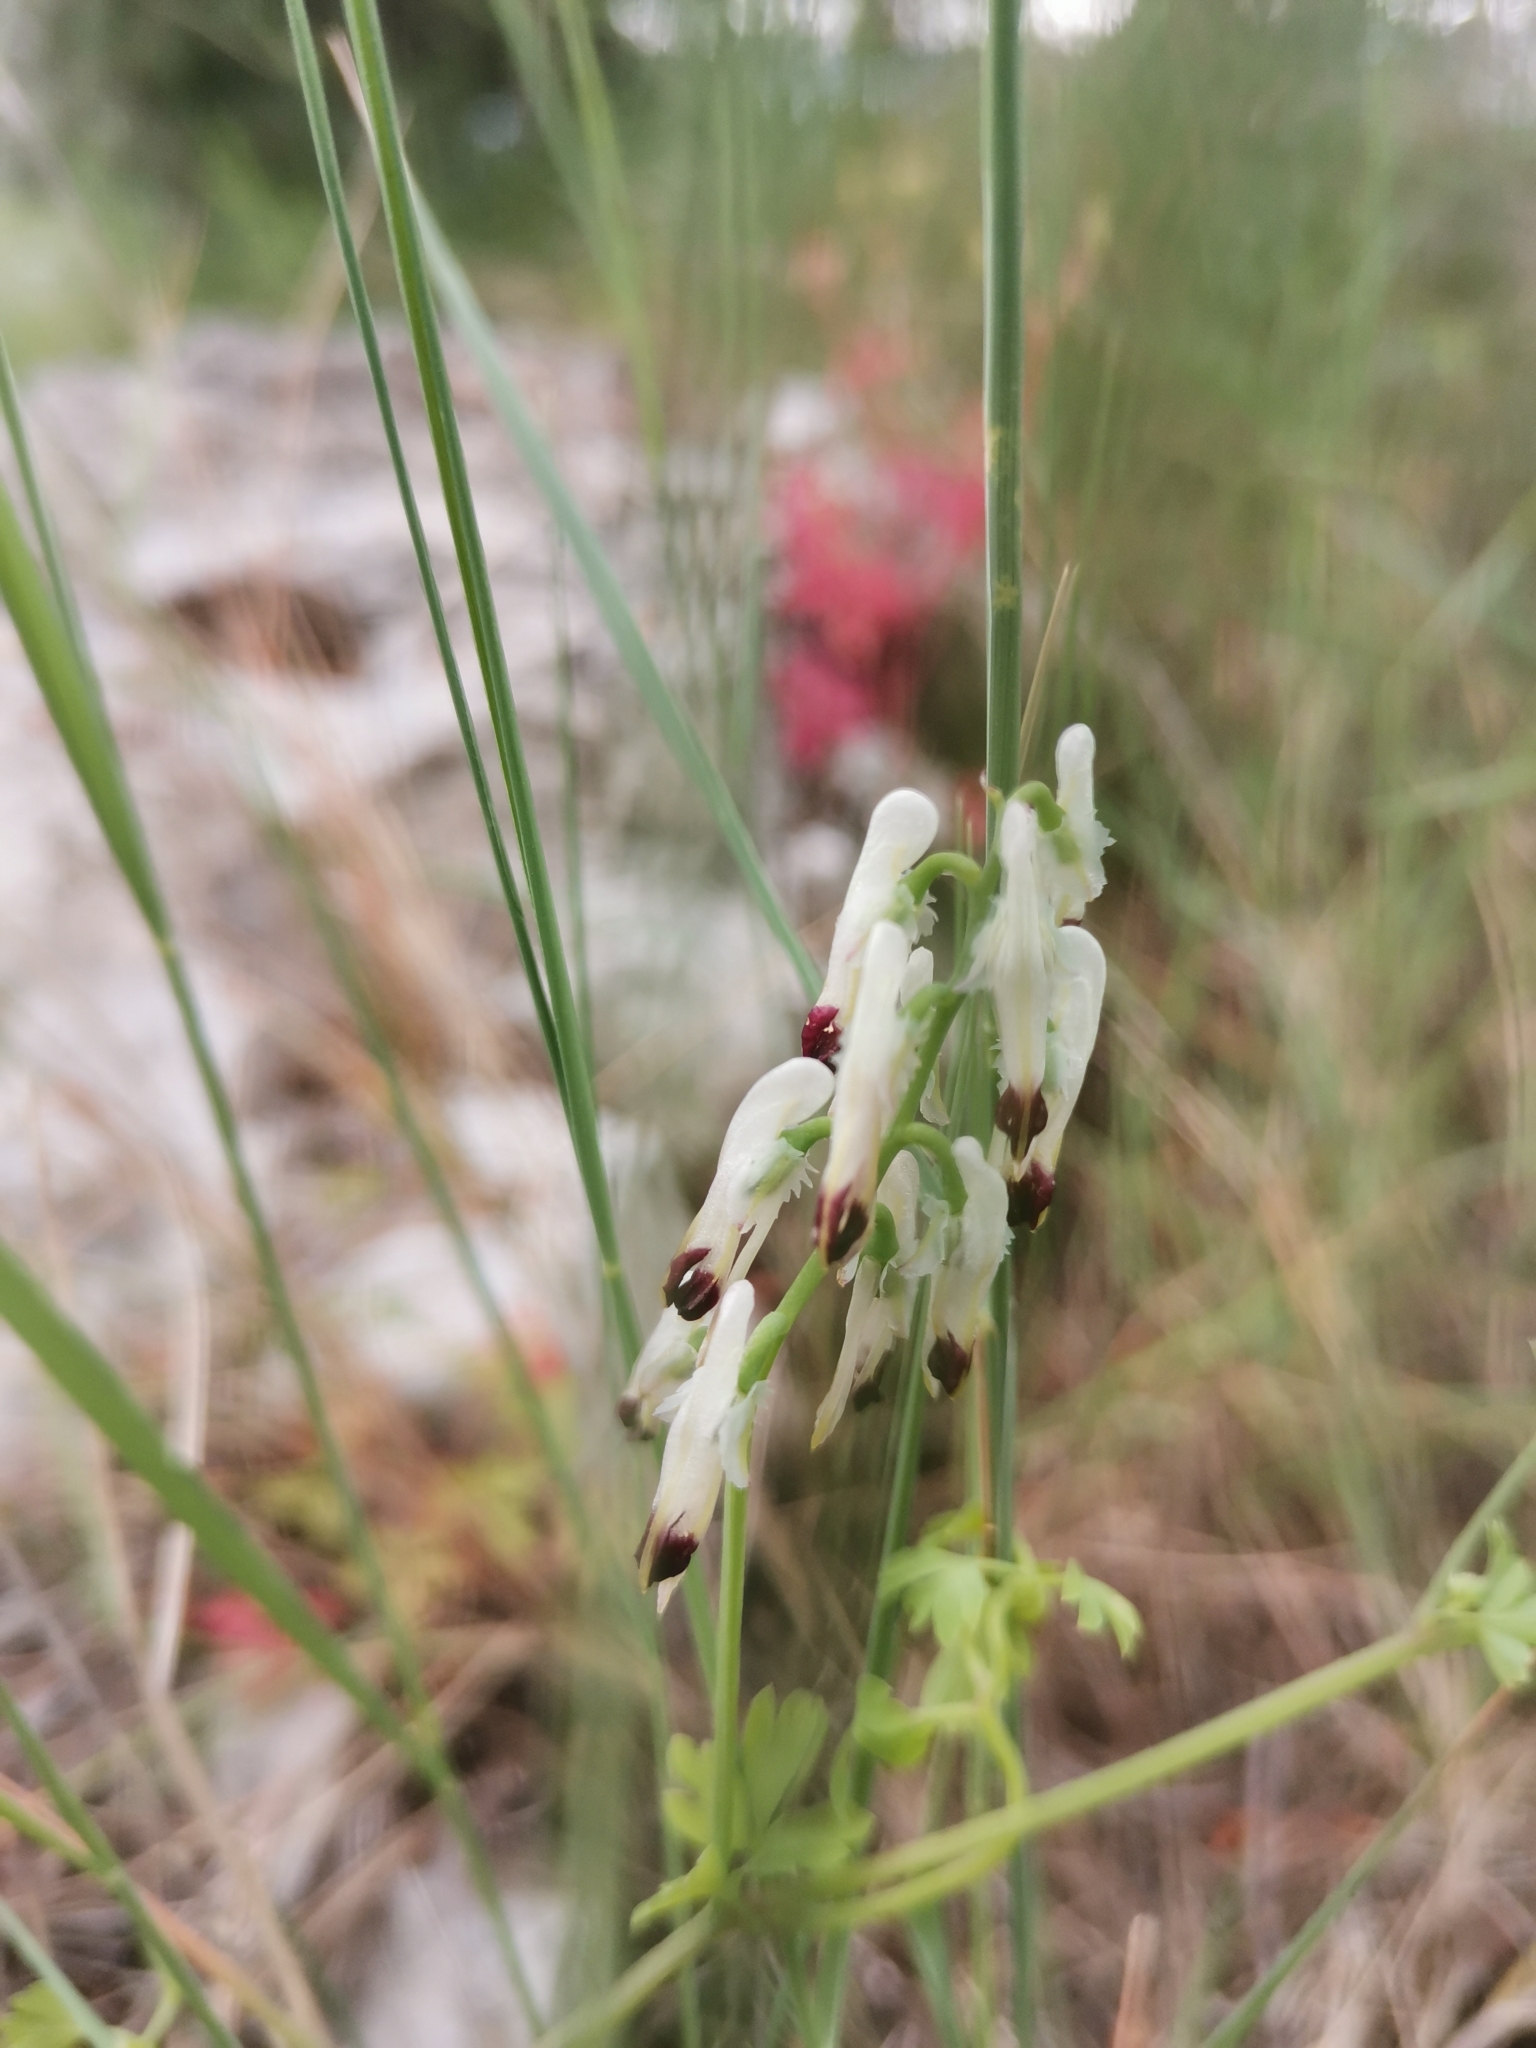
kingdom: Plantae
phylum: Tracheophyta
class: Magnoliopsida
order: Ranunculales
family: Papaveraceae
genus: Fumaria
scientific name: Fumaria capreolata
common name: White ramping-fumitory
